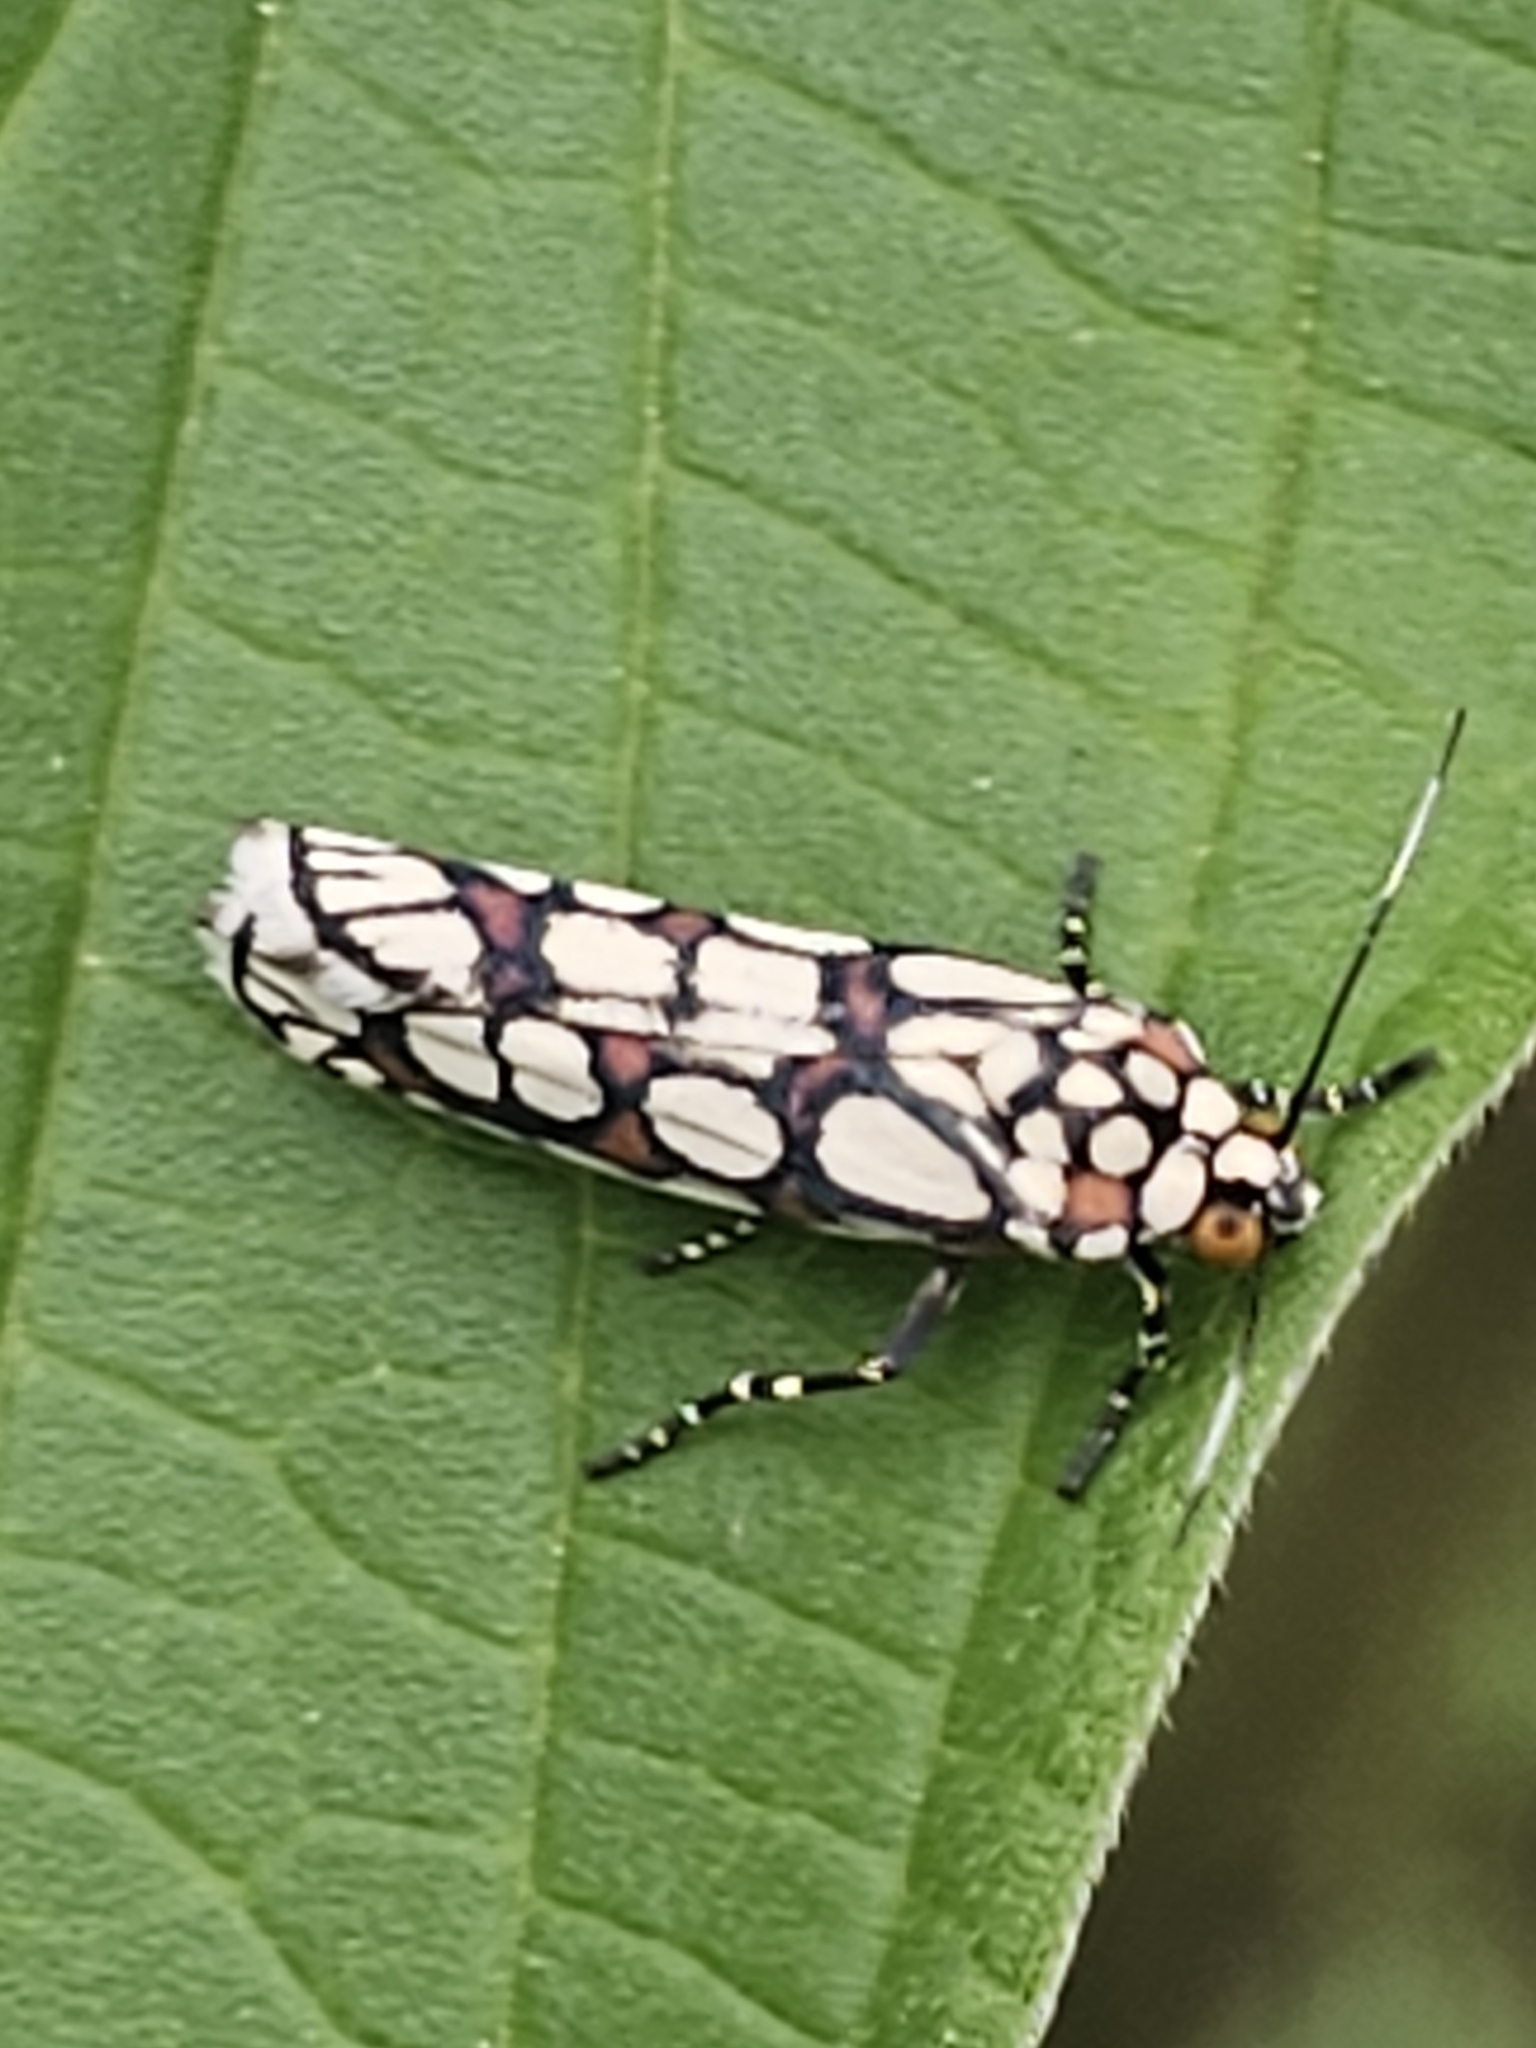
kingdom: Animalia
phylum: Arthropoda
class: Insecta
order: Lepidoptera
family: Noctuidae
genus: Cydosia
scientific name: Cydosia nobilitella
